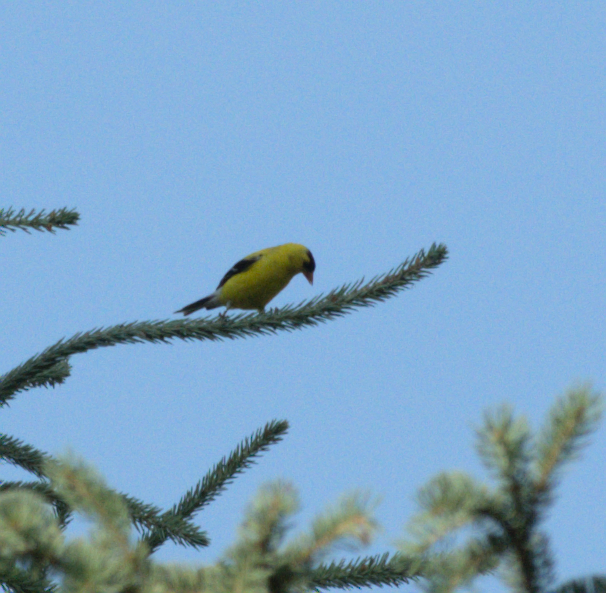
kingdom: Animalia
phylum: Chordata
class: Aves
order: Passeriformes
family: Fringillidae
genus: Spinus
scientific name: Spinus tristis
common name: American goldfinch
